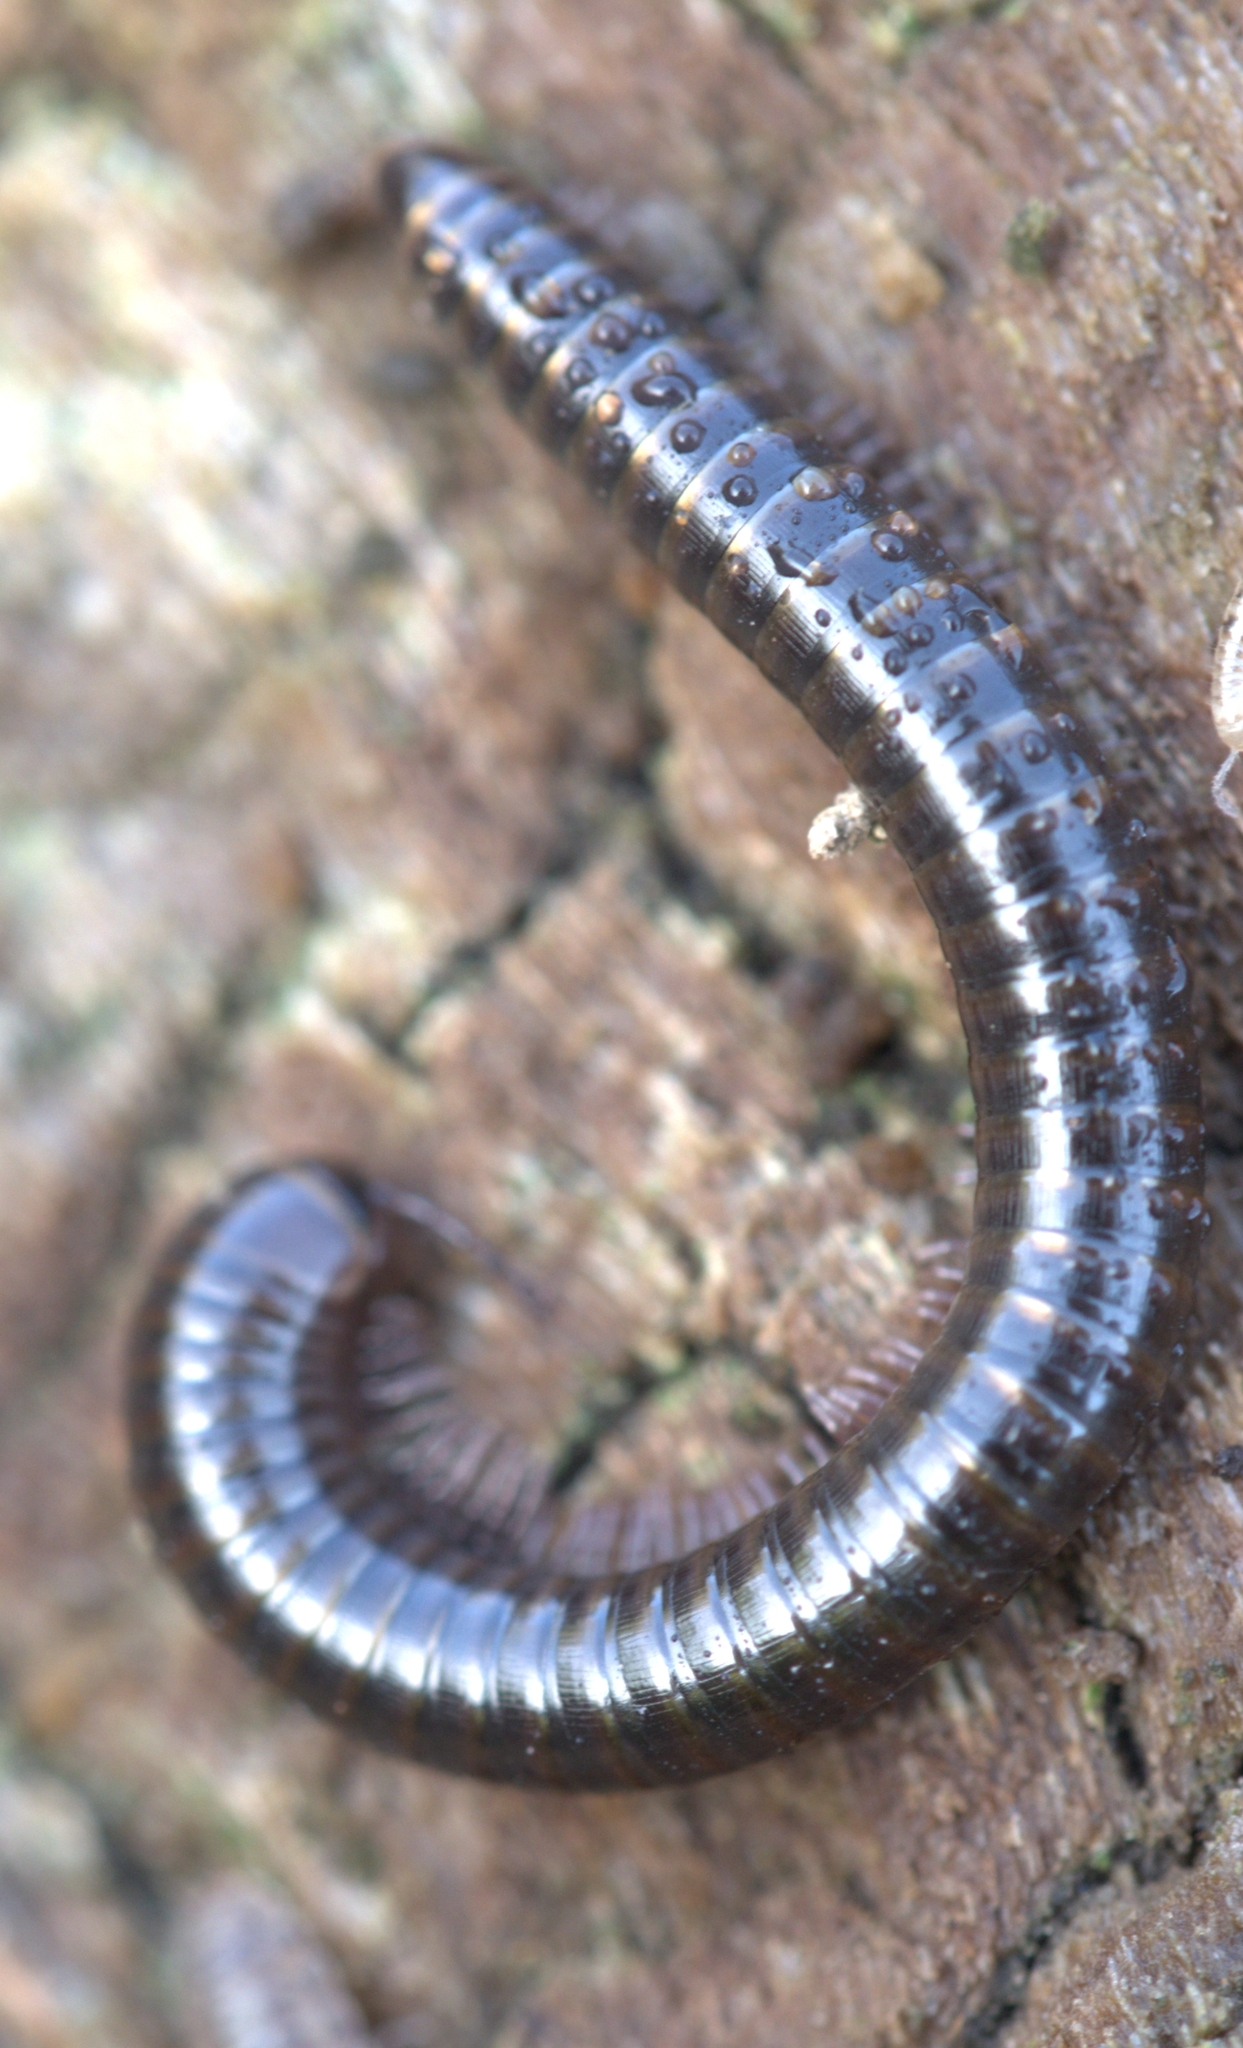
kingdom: Animalia
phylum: Arthropoda
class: Diplopoda
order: Julida
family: Julidae
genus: Cylindroiulus
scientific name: Cylindroiulus caeruleocinctus
